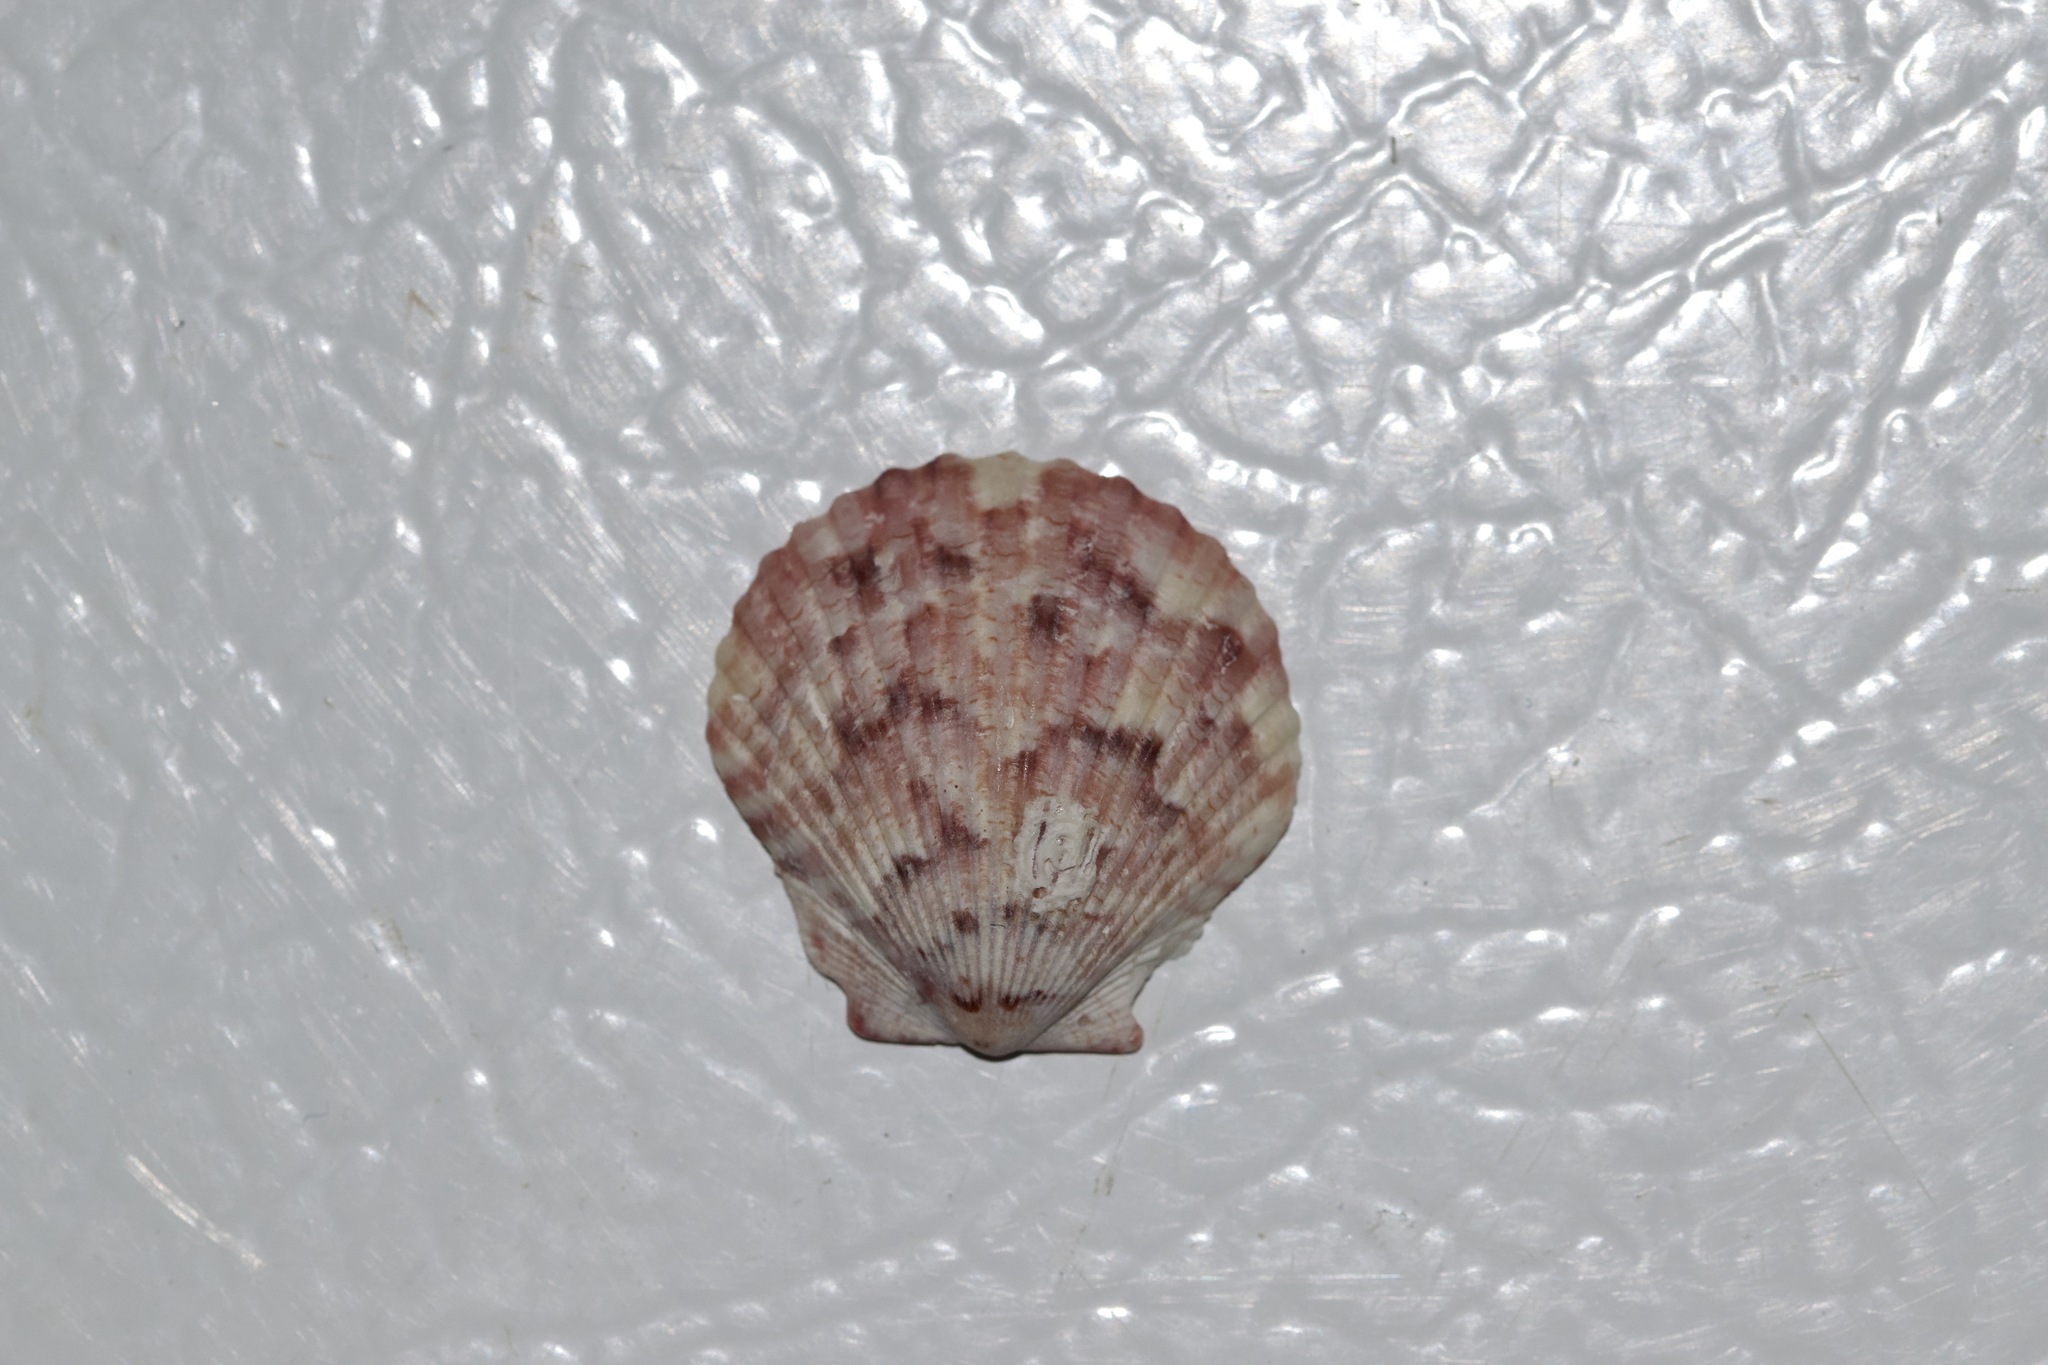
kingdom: Animalia
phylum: Mollusca
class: Bivalvia
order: Pectinida
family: Pectinidae
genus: Argopecten
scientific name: Argopecten gibbus
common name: Atlantic calico scallop
